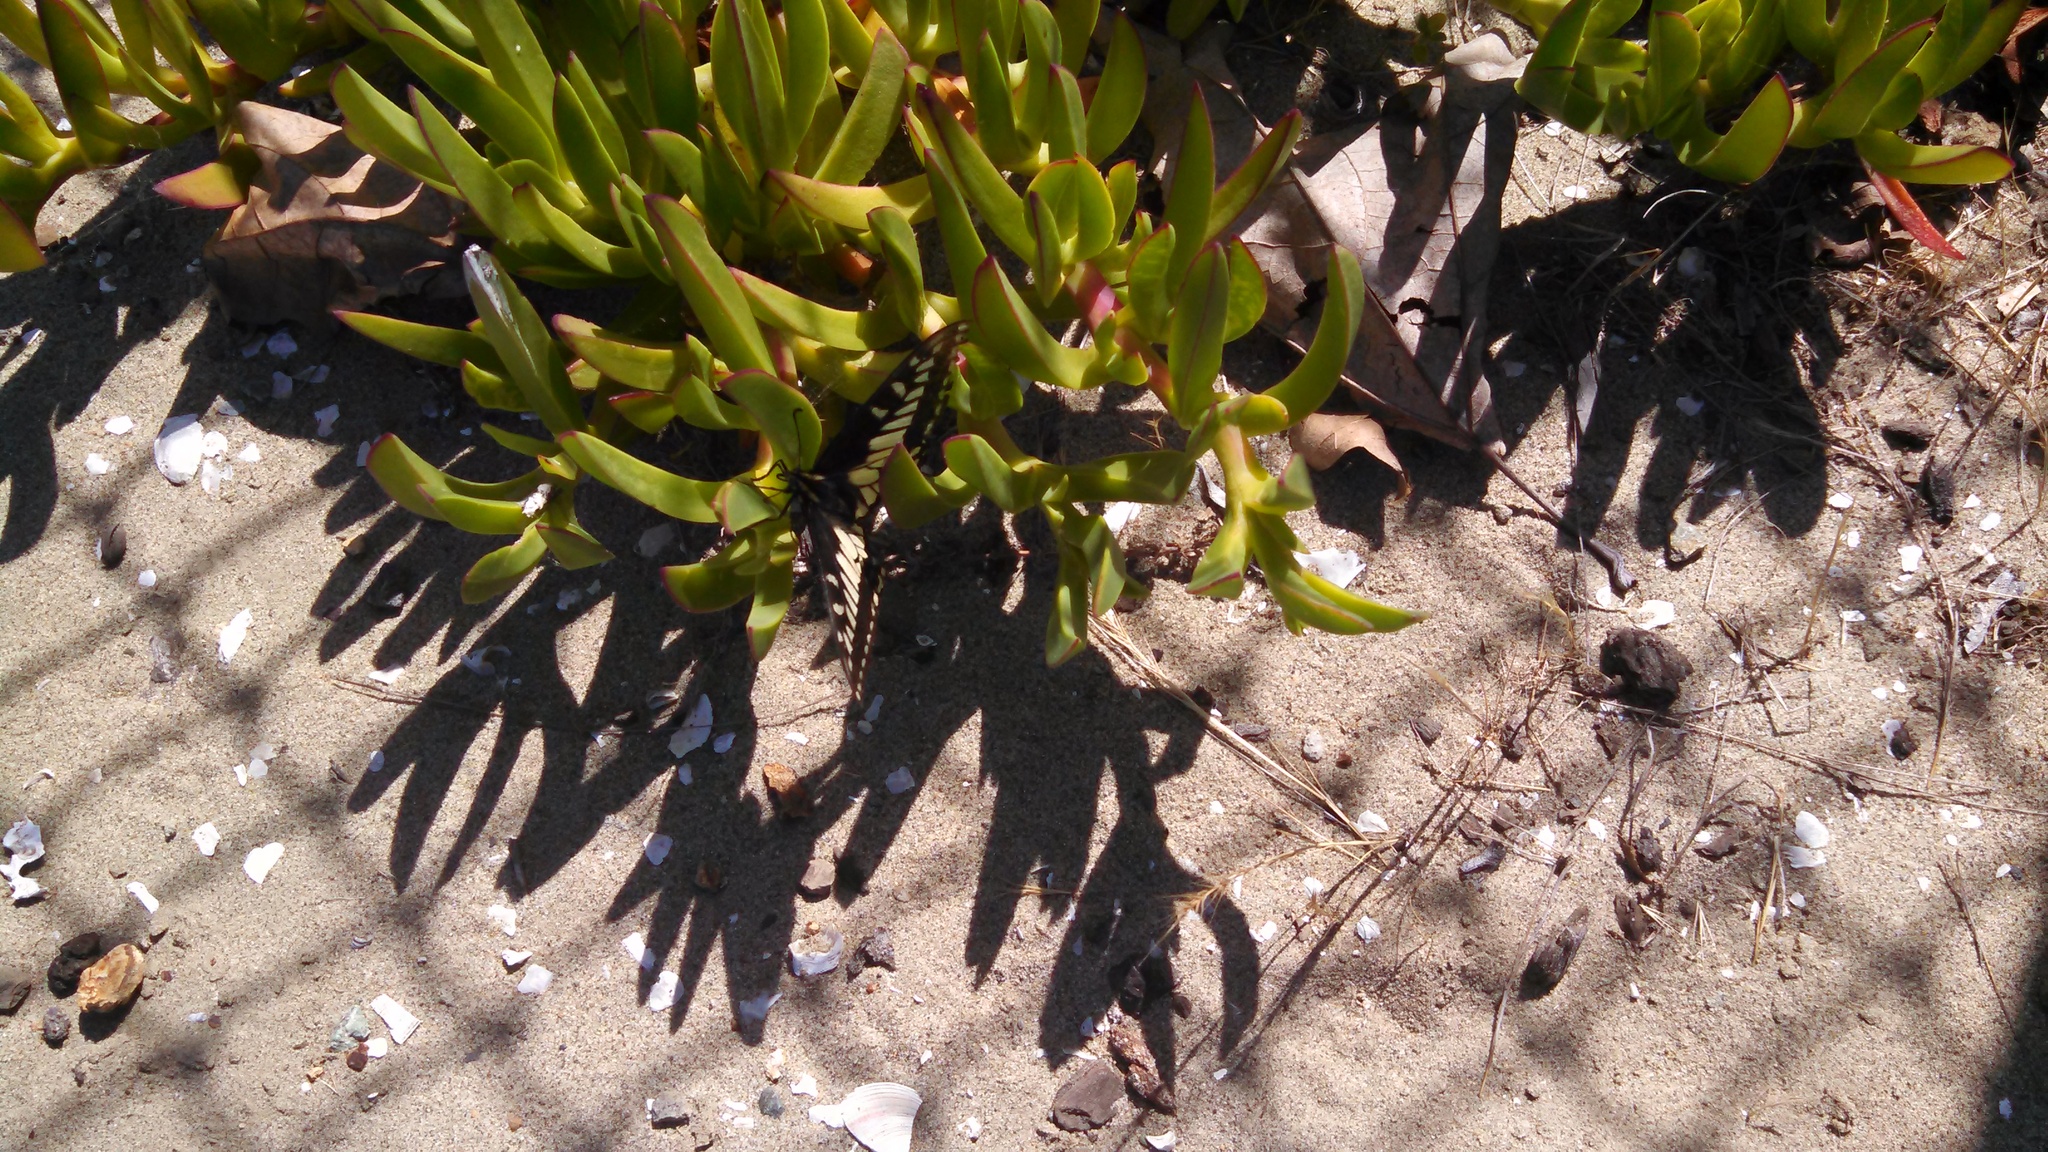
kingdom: Animalia
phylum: Arthropoda
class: Insecta
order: Lepidoptera
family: Papilionidae
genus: Papilio
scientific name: Papilio zelicaon
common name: Anise swallowtail
